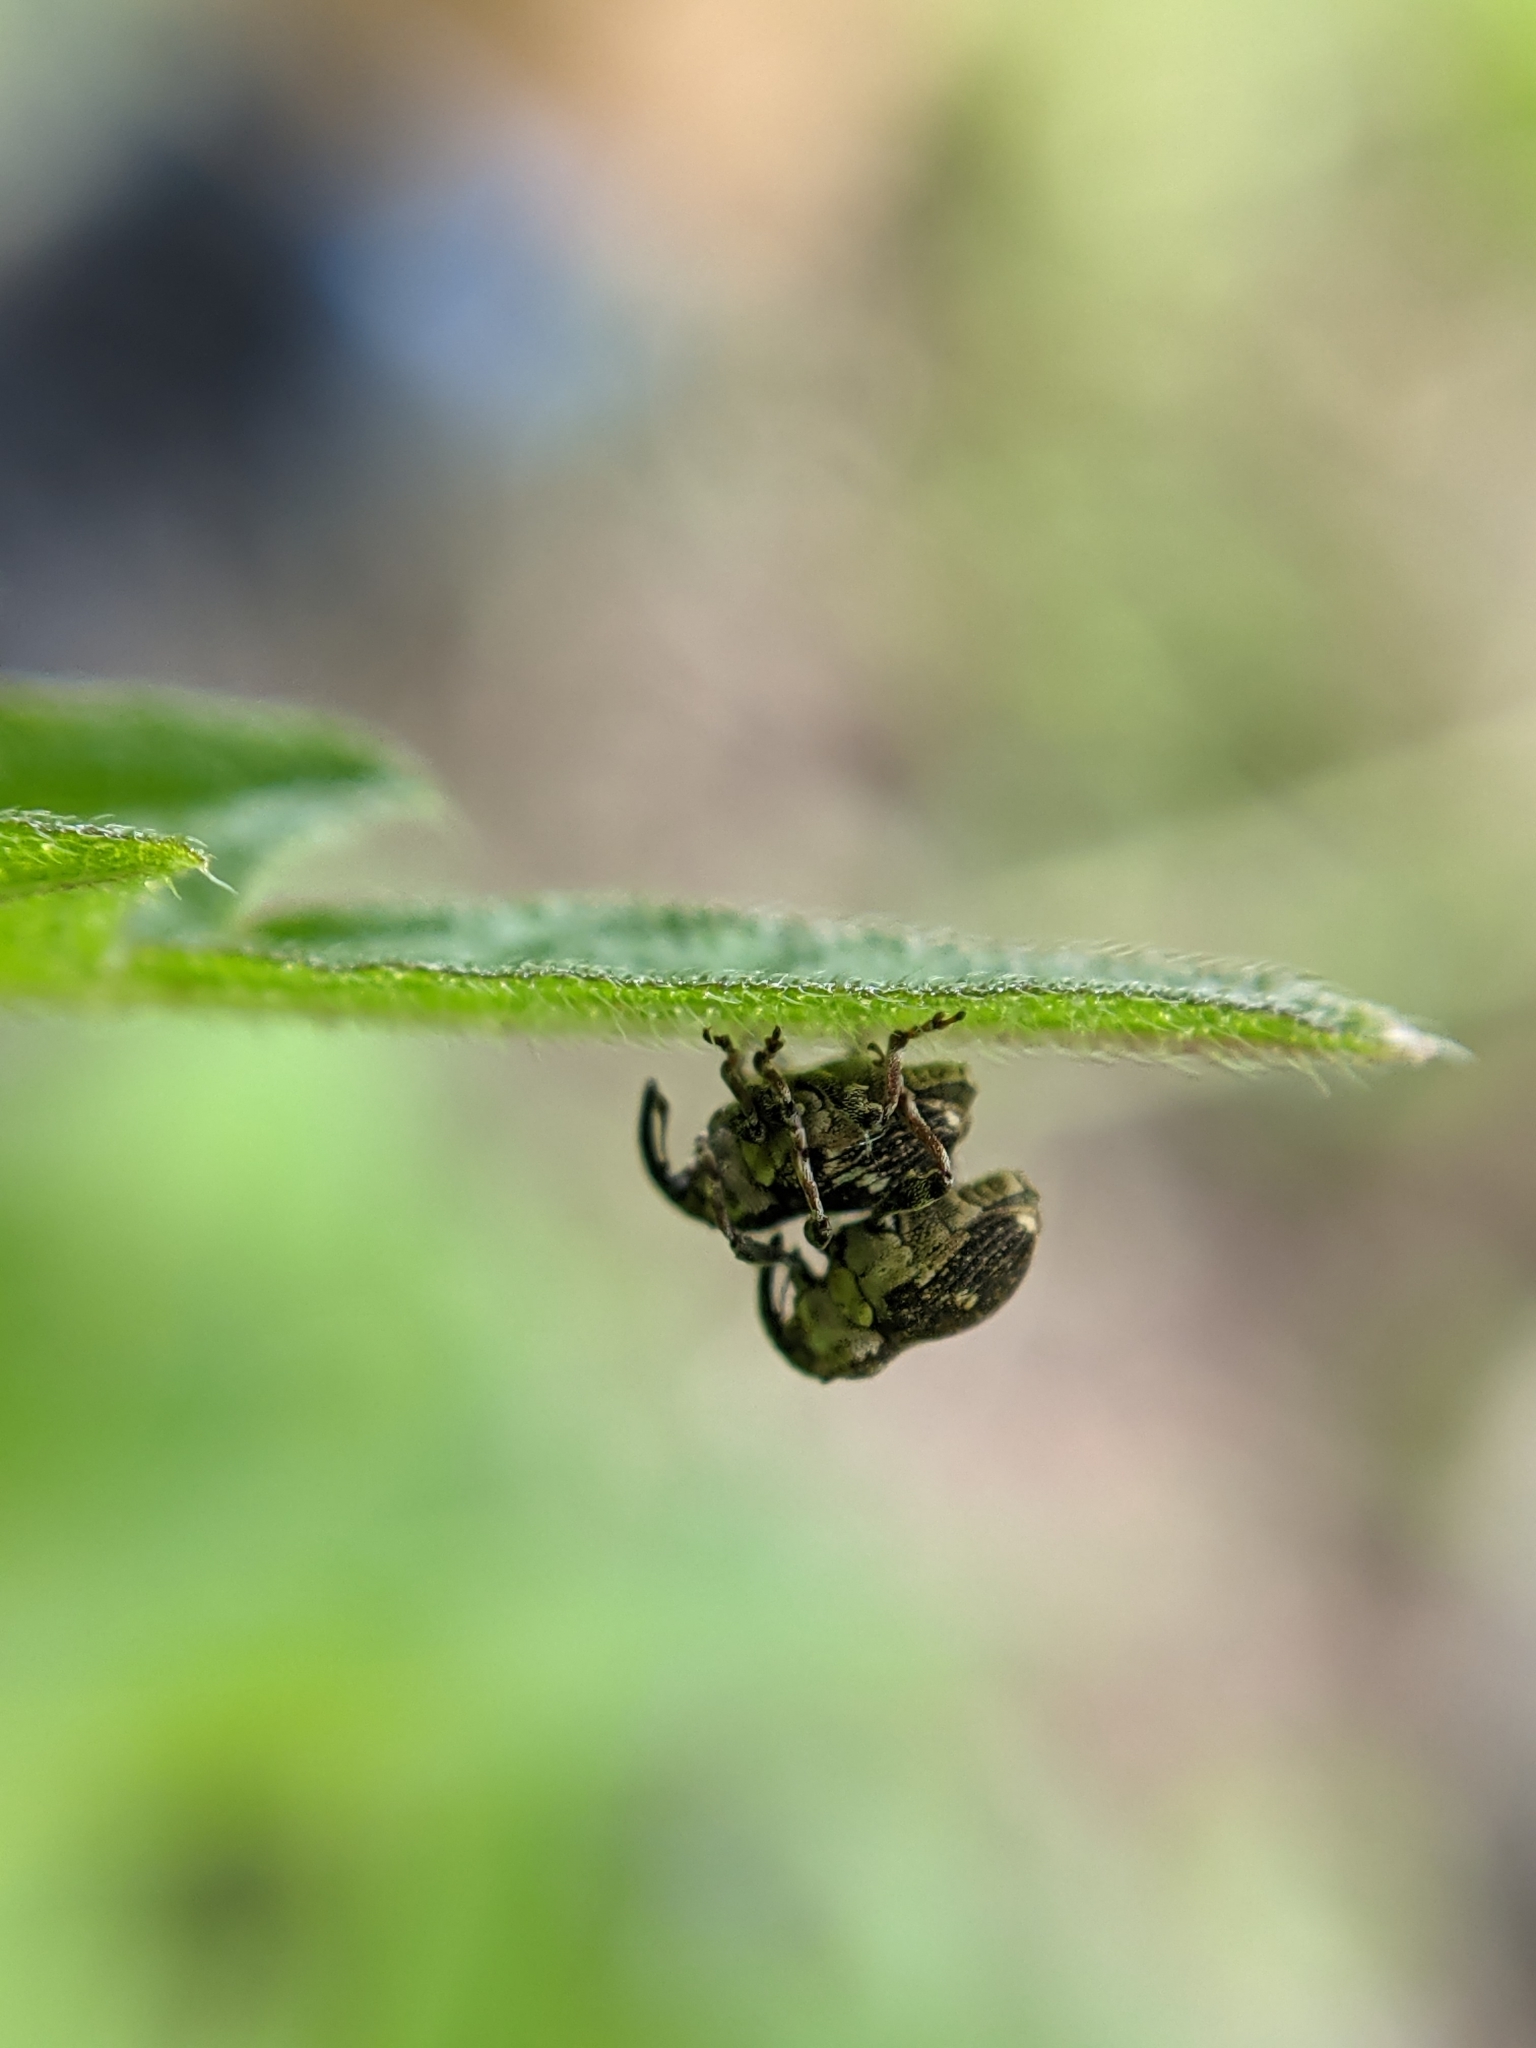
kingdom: Animalia
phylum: Arthropoda
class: Insecta
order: Coleoptera
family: Curculionidae
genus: Nedyus
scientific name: Nedyus quadrimaculatus
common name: Small nettle weevil
